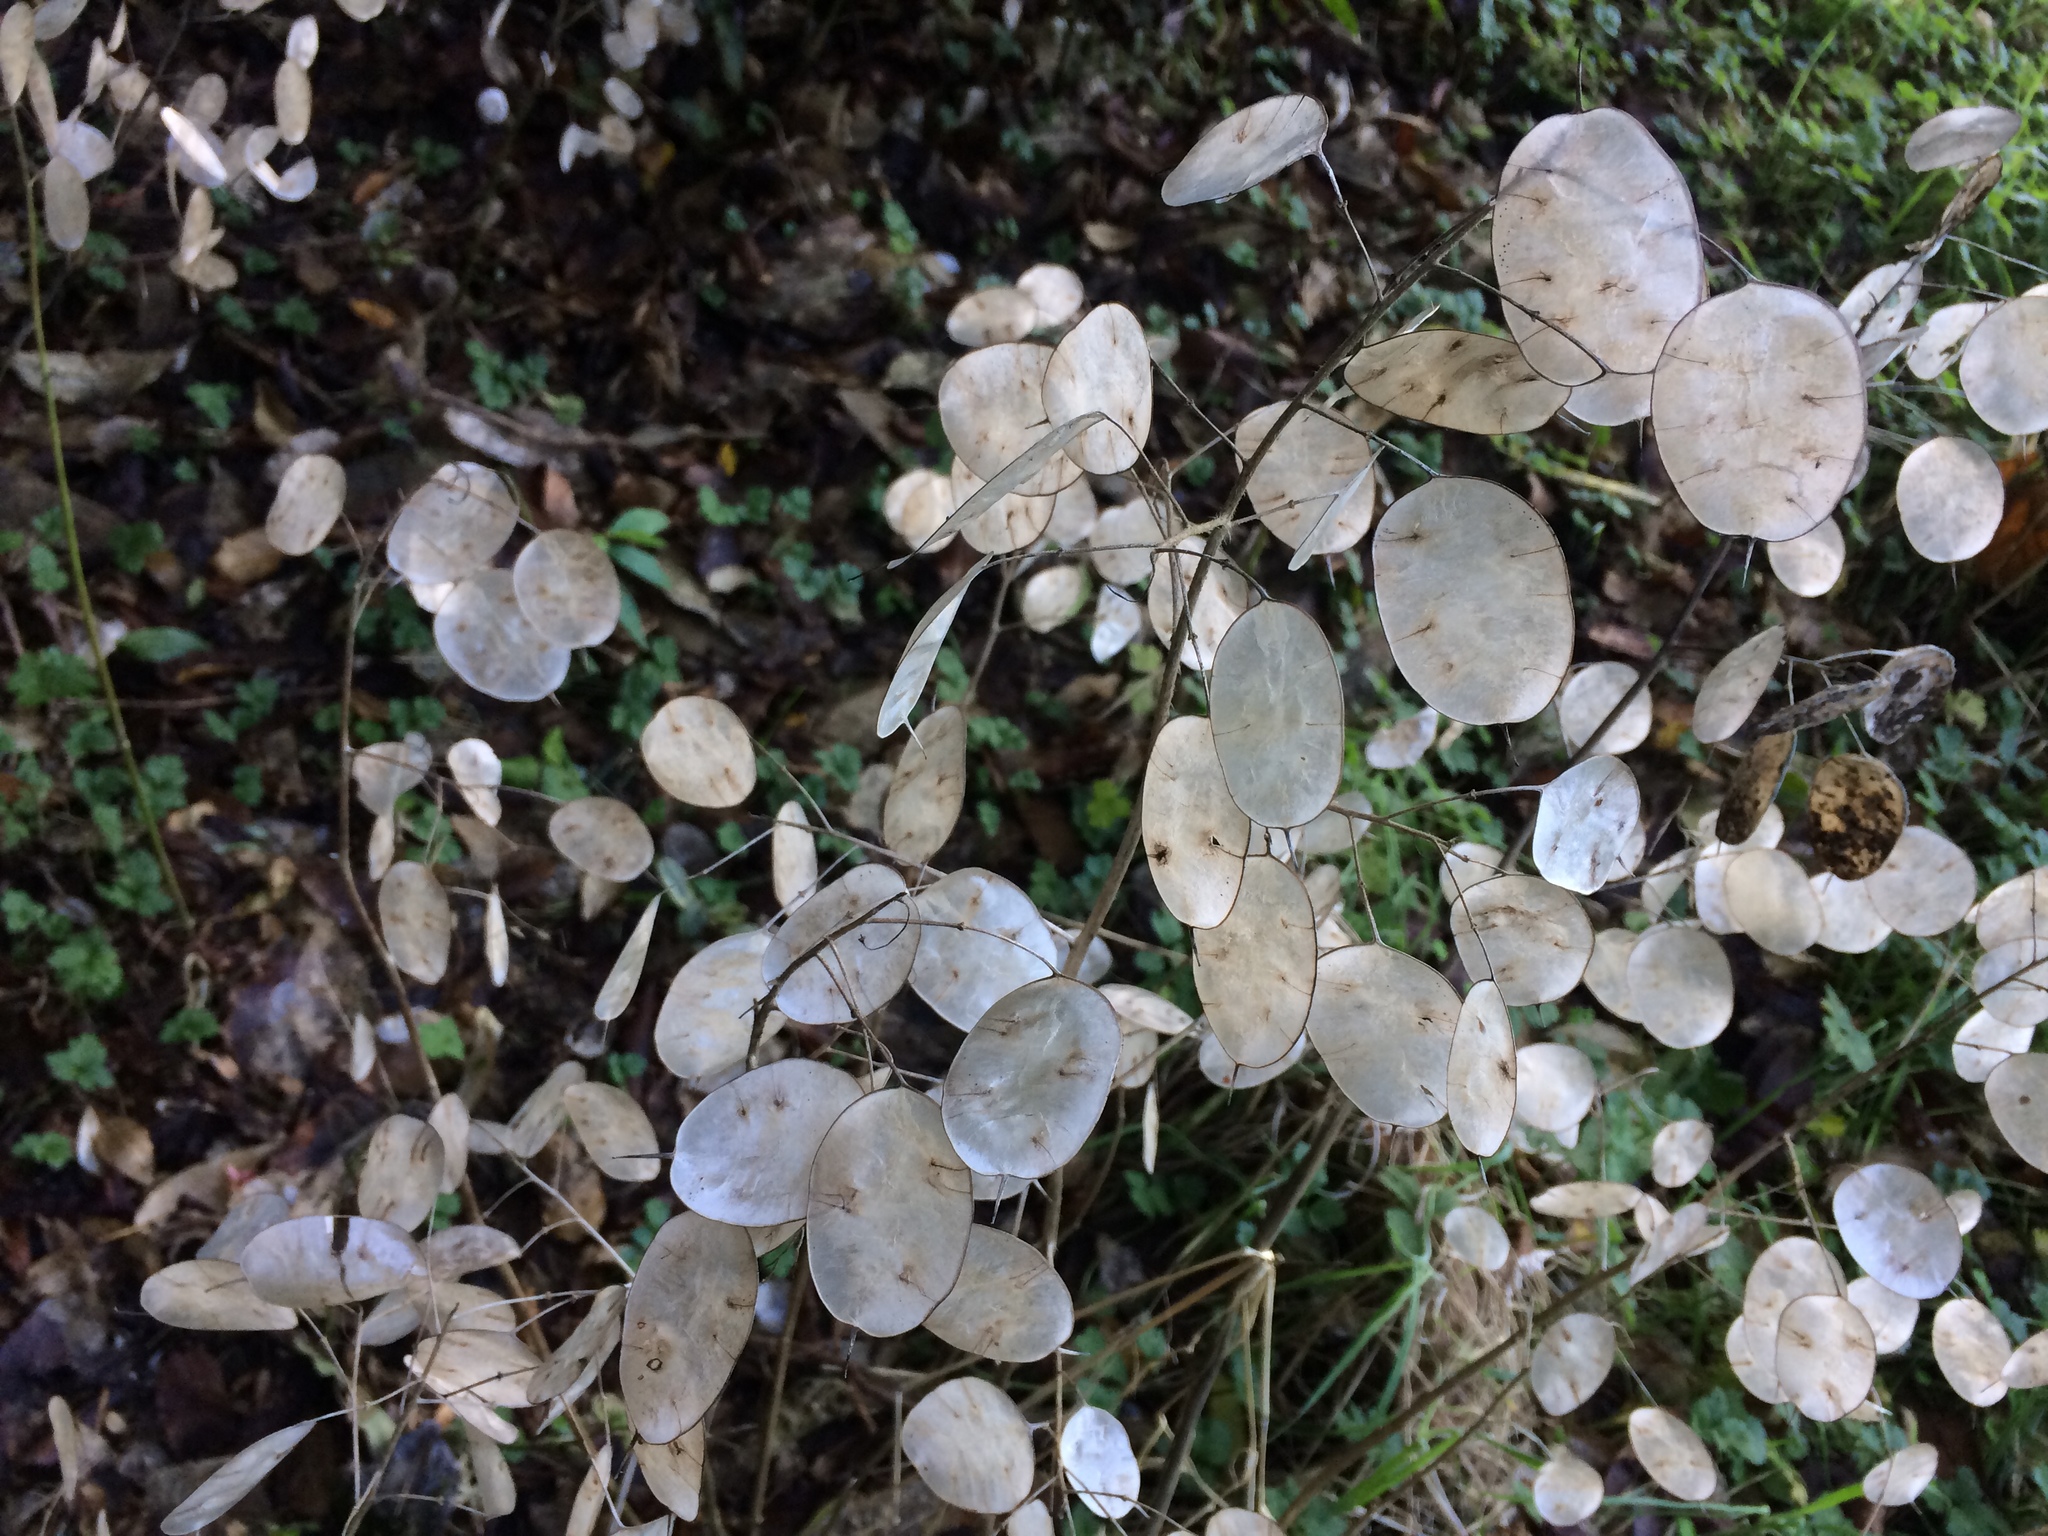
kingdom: Plantae
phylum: Tracheophyta
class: Magnoliopsida
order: Brassicales
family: Brassicaceae
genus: Lunaria
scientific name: Lunaria annua
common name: Honesty
